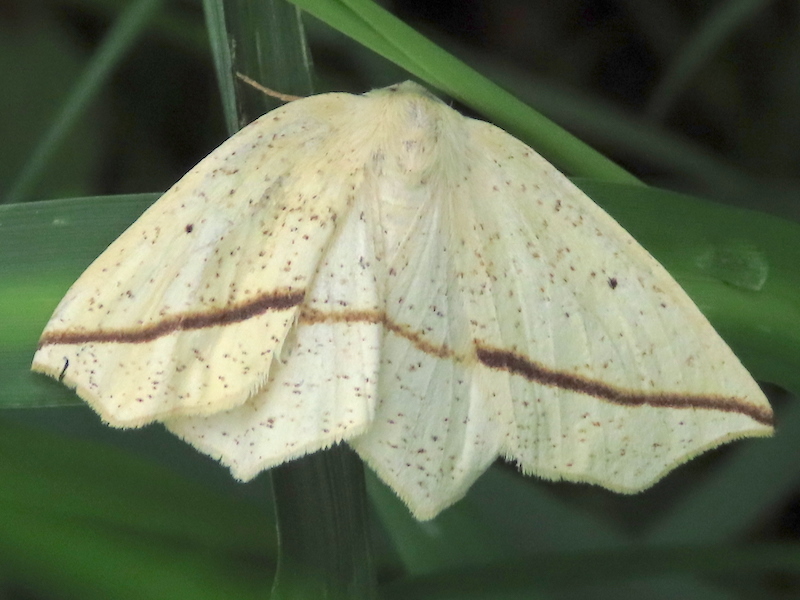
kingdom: Animalia
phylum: Arthropoda
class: Insecta
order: Lepidoptera
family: Geometridae
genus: Tetracis
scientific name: Tetracis crocallata
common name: Yellow slant-line
